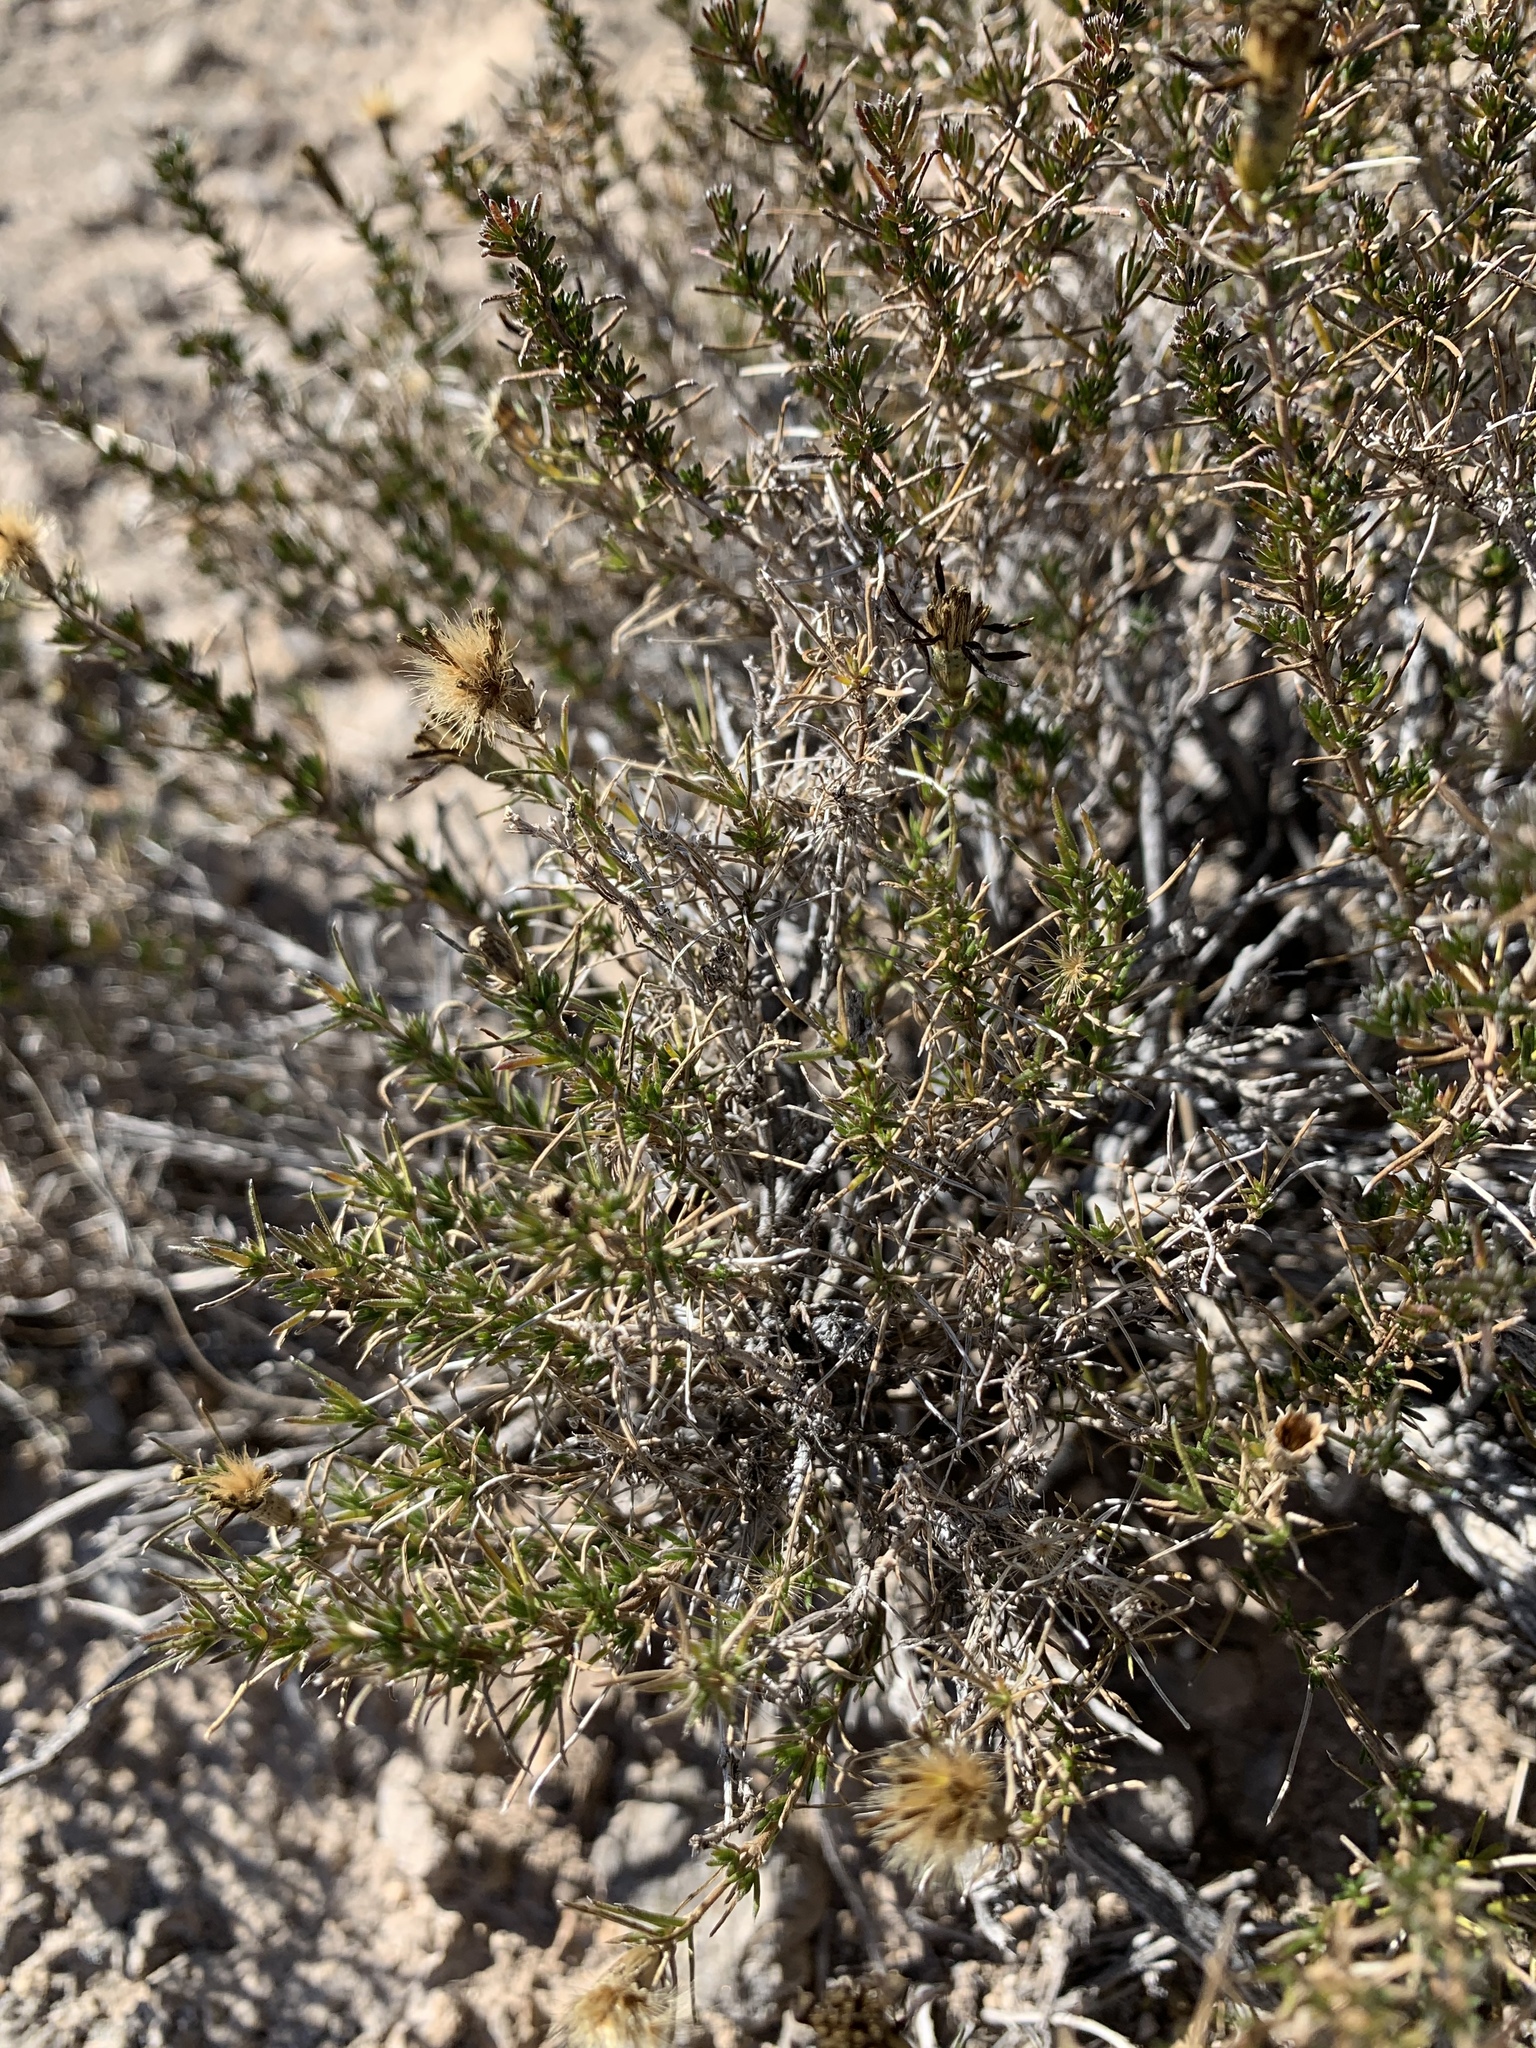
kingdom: Plantae
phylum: Tracheophyta
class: Magnoliopsida
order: Asterales
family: Asteraceae
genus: Thymophylla
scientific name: Thymophylla acerosa
